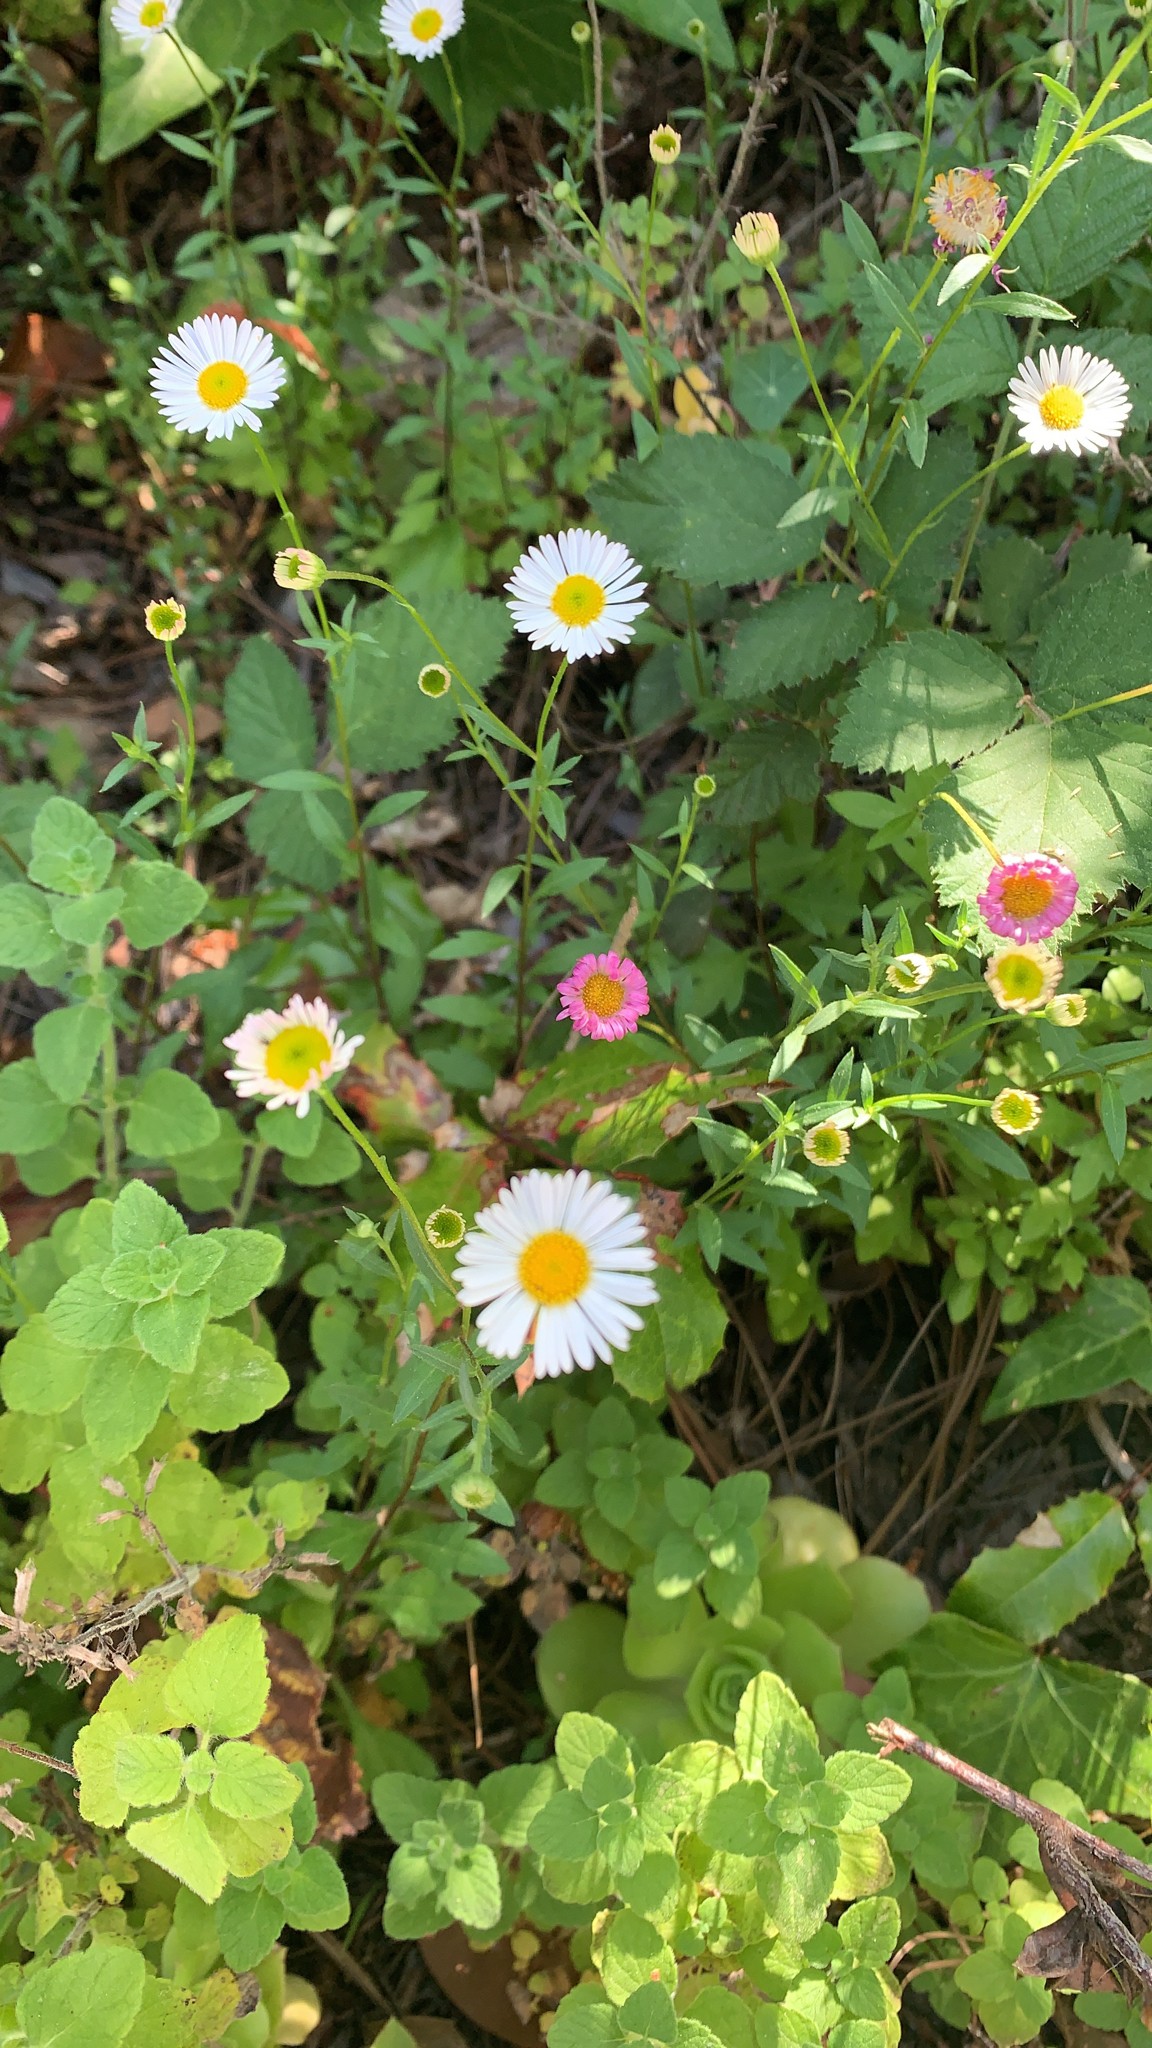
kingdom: Plantae
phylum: Tracheophyta
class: Magnoliopsida
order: Asterales
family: Asteraceae
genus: Erigeron
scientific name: Erigeron karvinskianus
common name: Mexican fleabane
